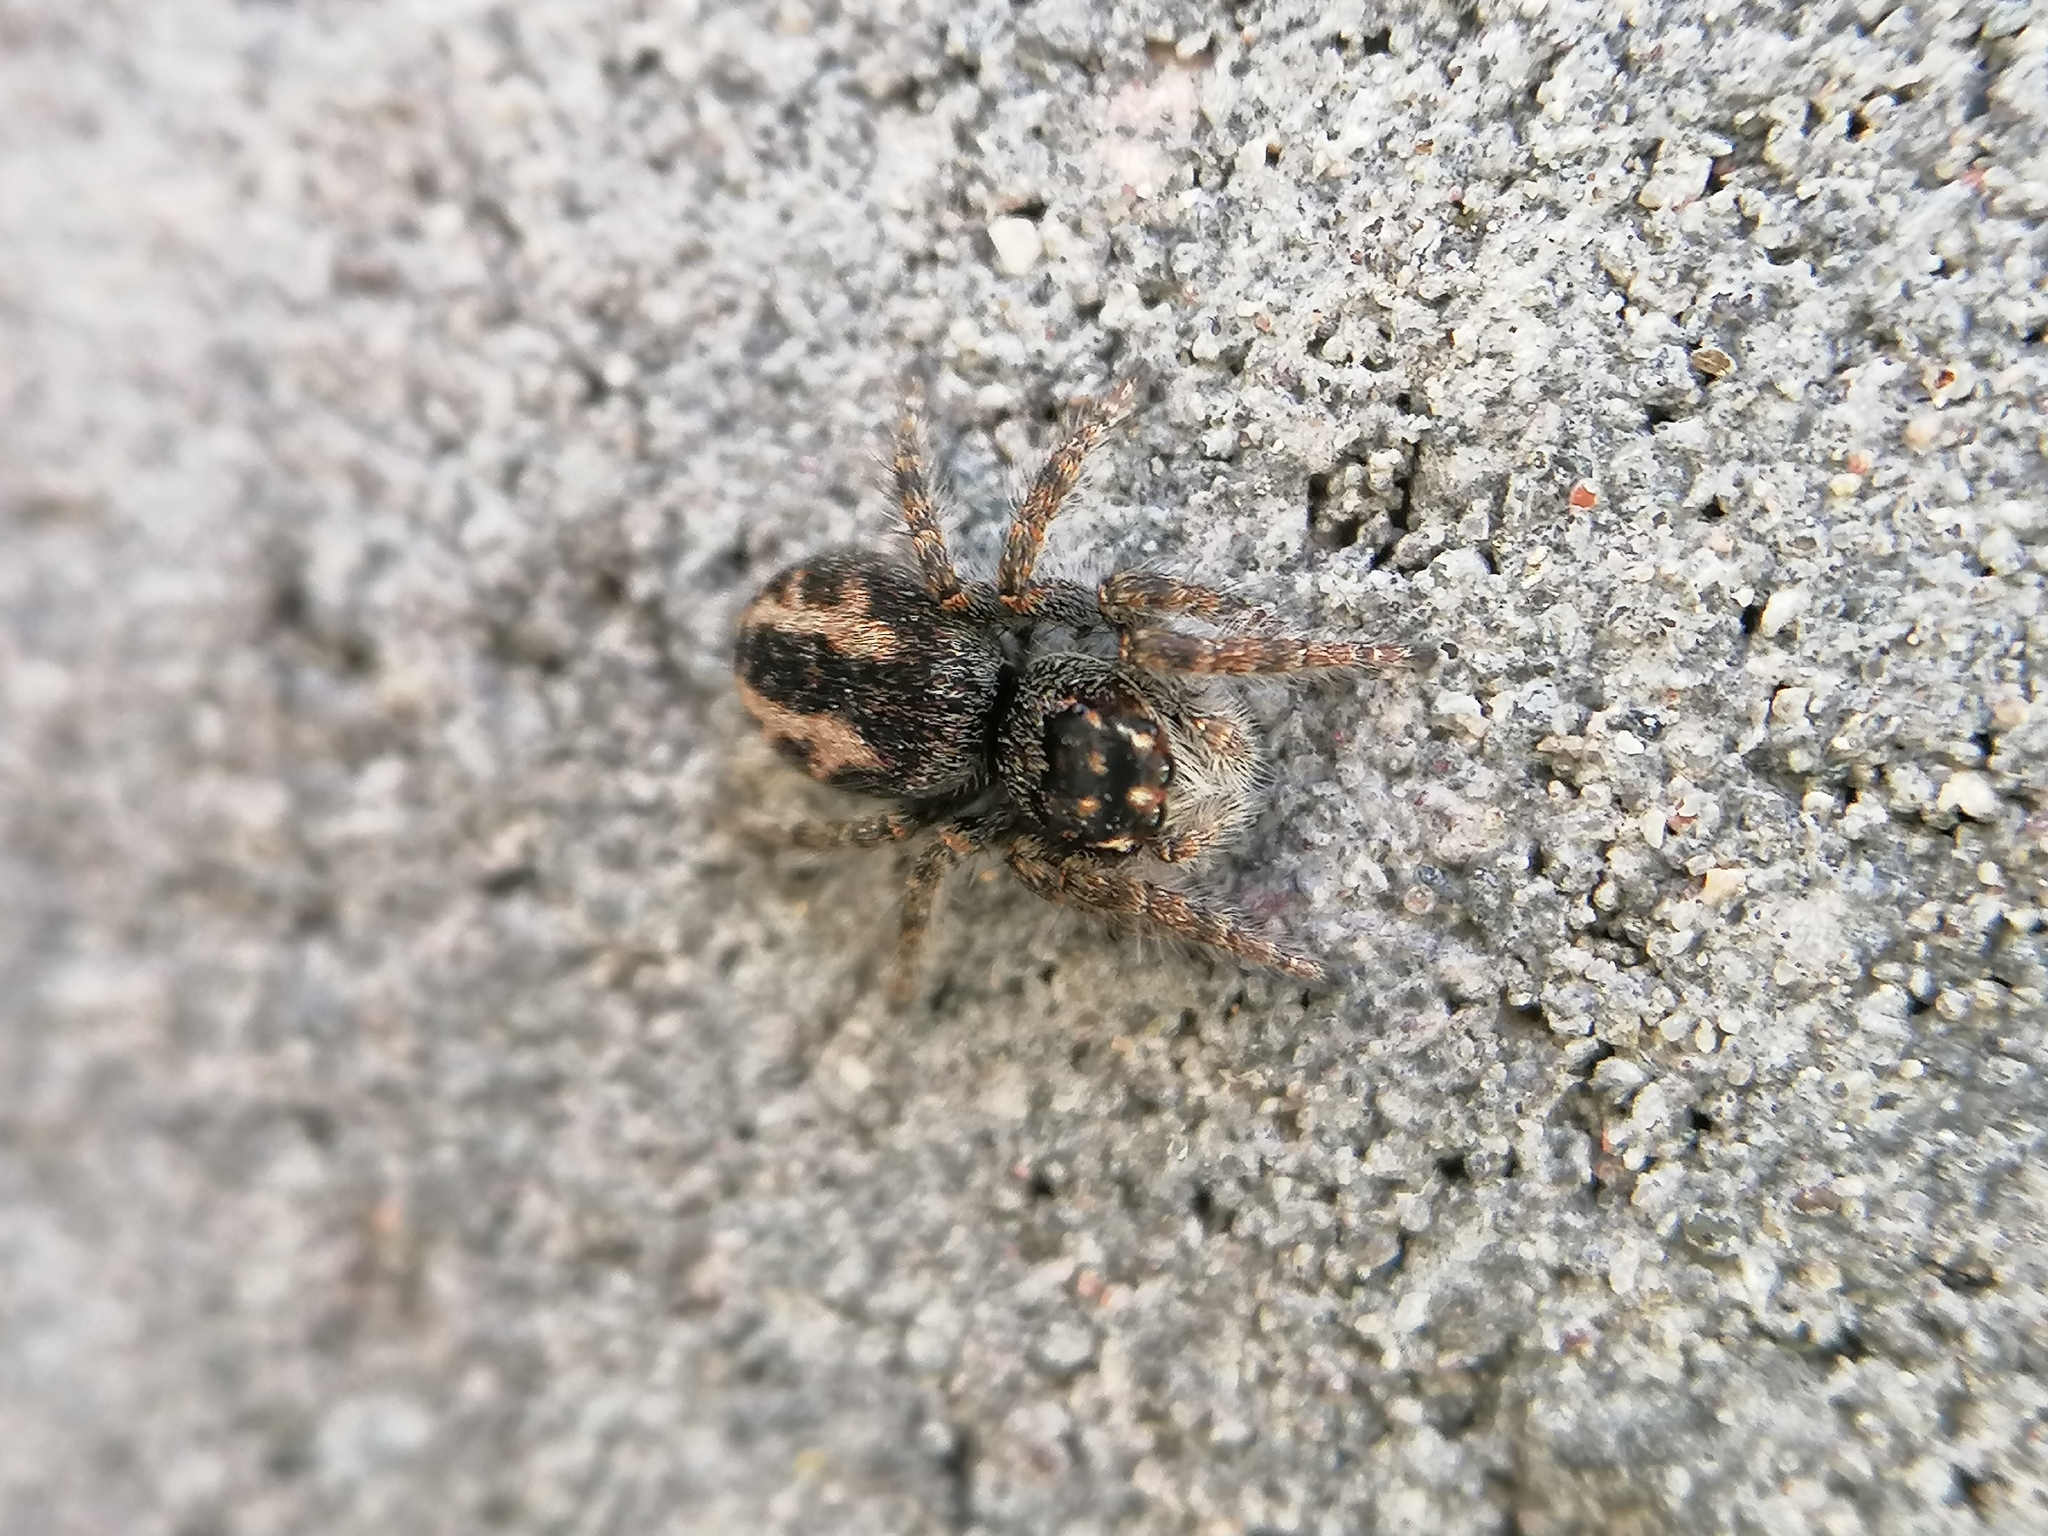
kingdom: Animalia
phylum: Arthropoda
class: Arachnida
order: Araneae
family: Salticidae
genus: Philaeus
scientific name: Philaeus chrysops
